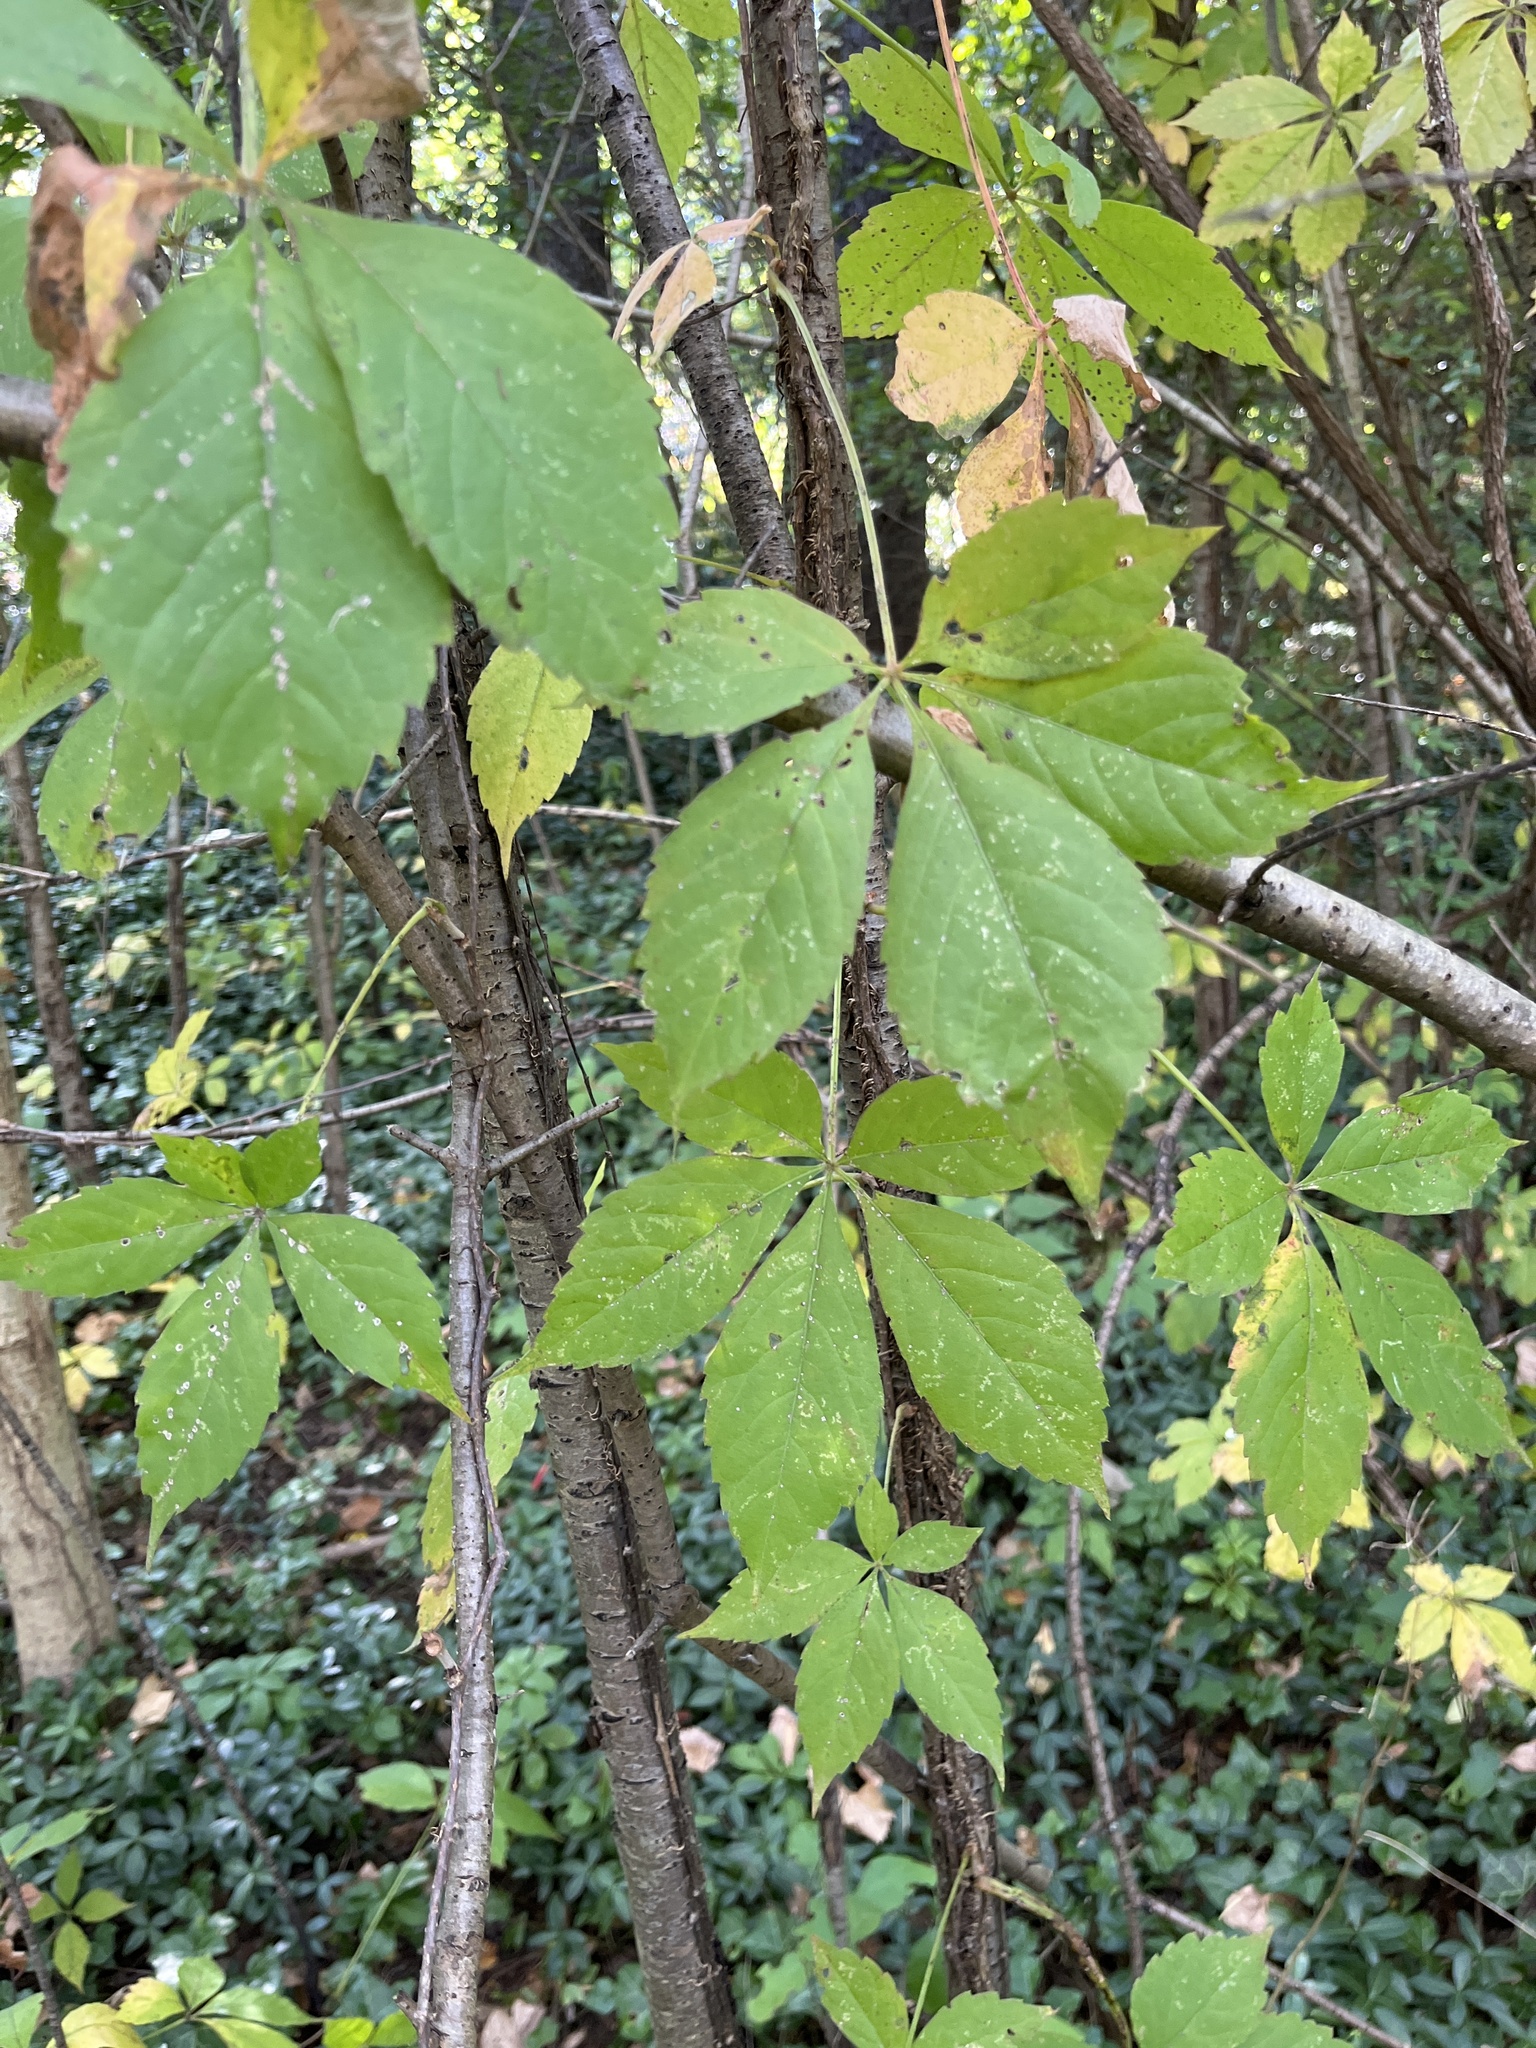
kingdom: Plantae
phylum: Tracheophyta
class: Magnoliopsida
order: Vitales
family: Vitaceae
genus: Parthenocissus
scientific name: Parthenocissus quinquefolia
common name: Virginia-creeper
